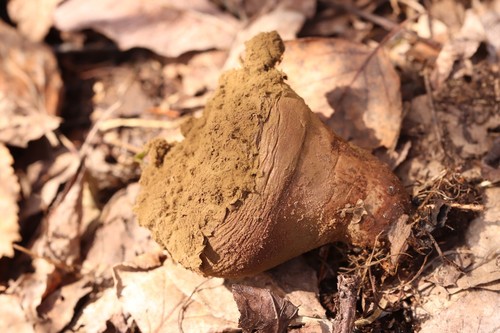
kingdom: Fungi
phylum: Basidiomycota
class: Agaricomycetes
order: Agaricales
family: Lycoperdaceae
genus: Bovistella
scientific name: Bovistella utriformis
